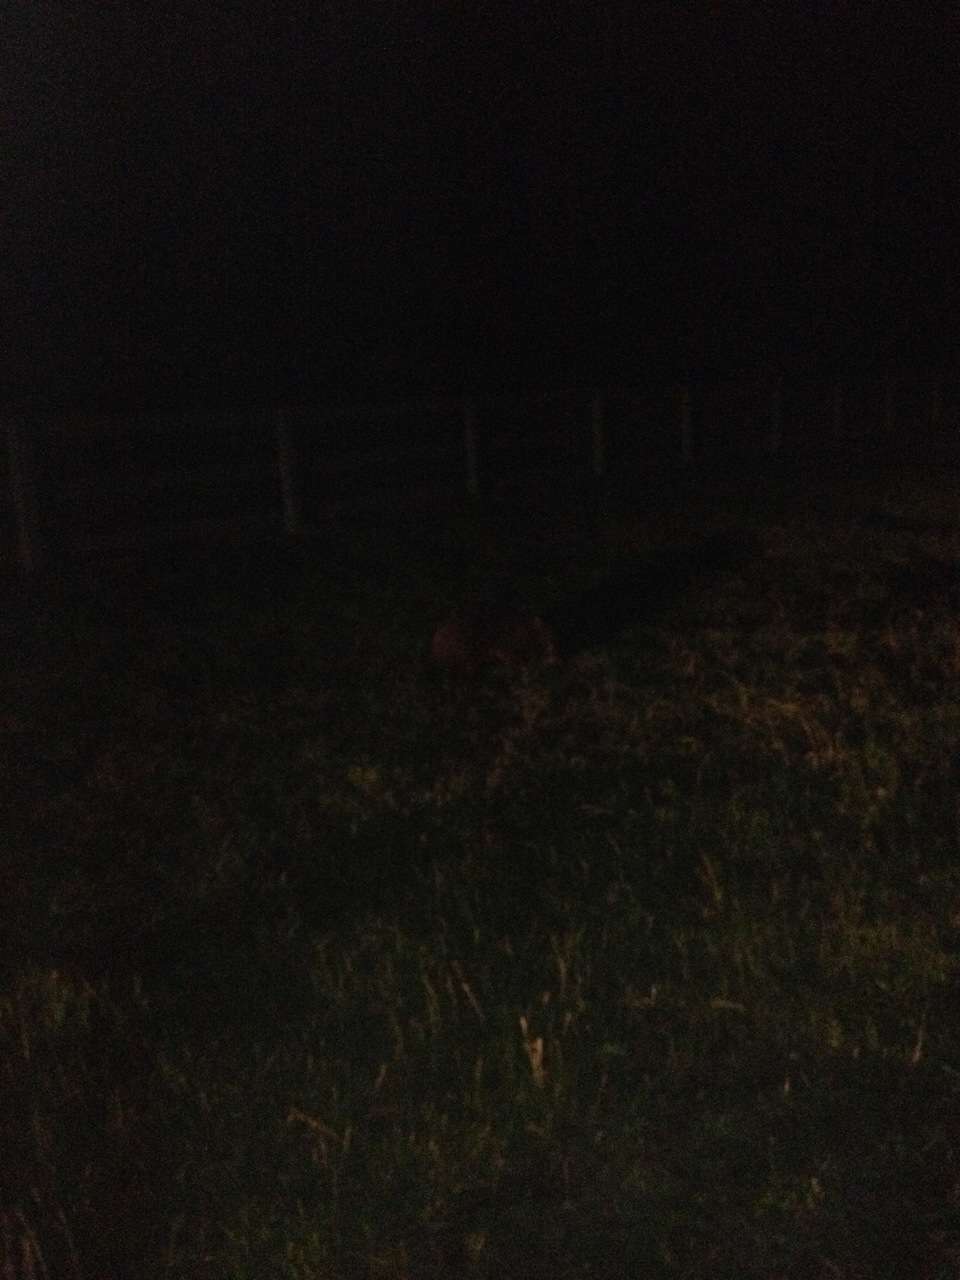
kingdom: Animalia
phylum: Chordata
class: Mammalia
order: Diprotodontia
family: Vombatidae
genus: Vombatus
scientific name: Vombatus ursinus
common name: Common wombat
